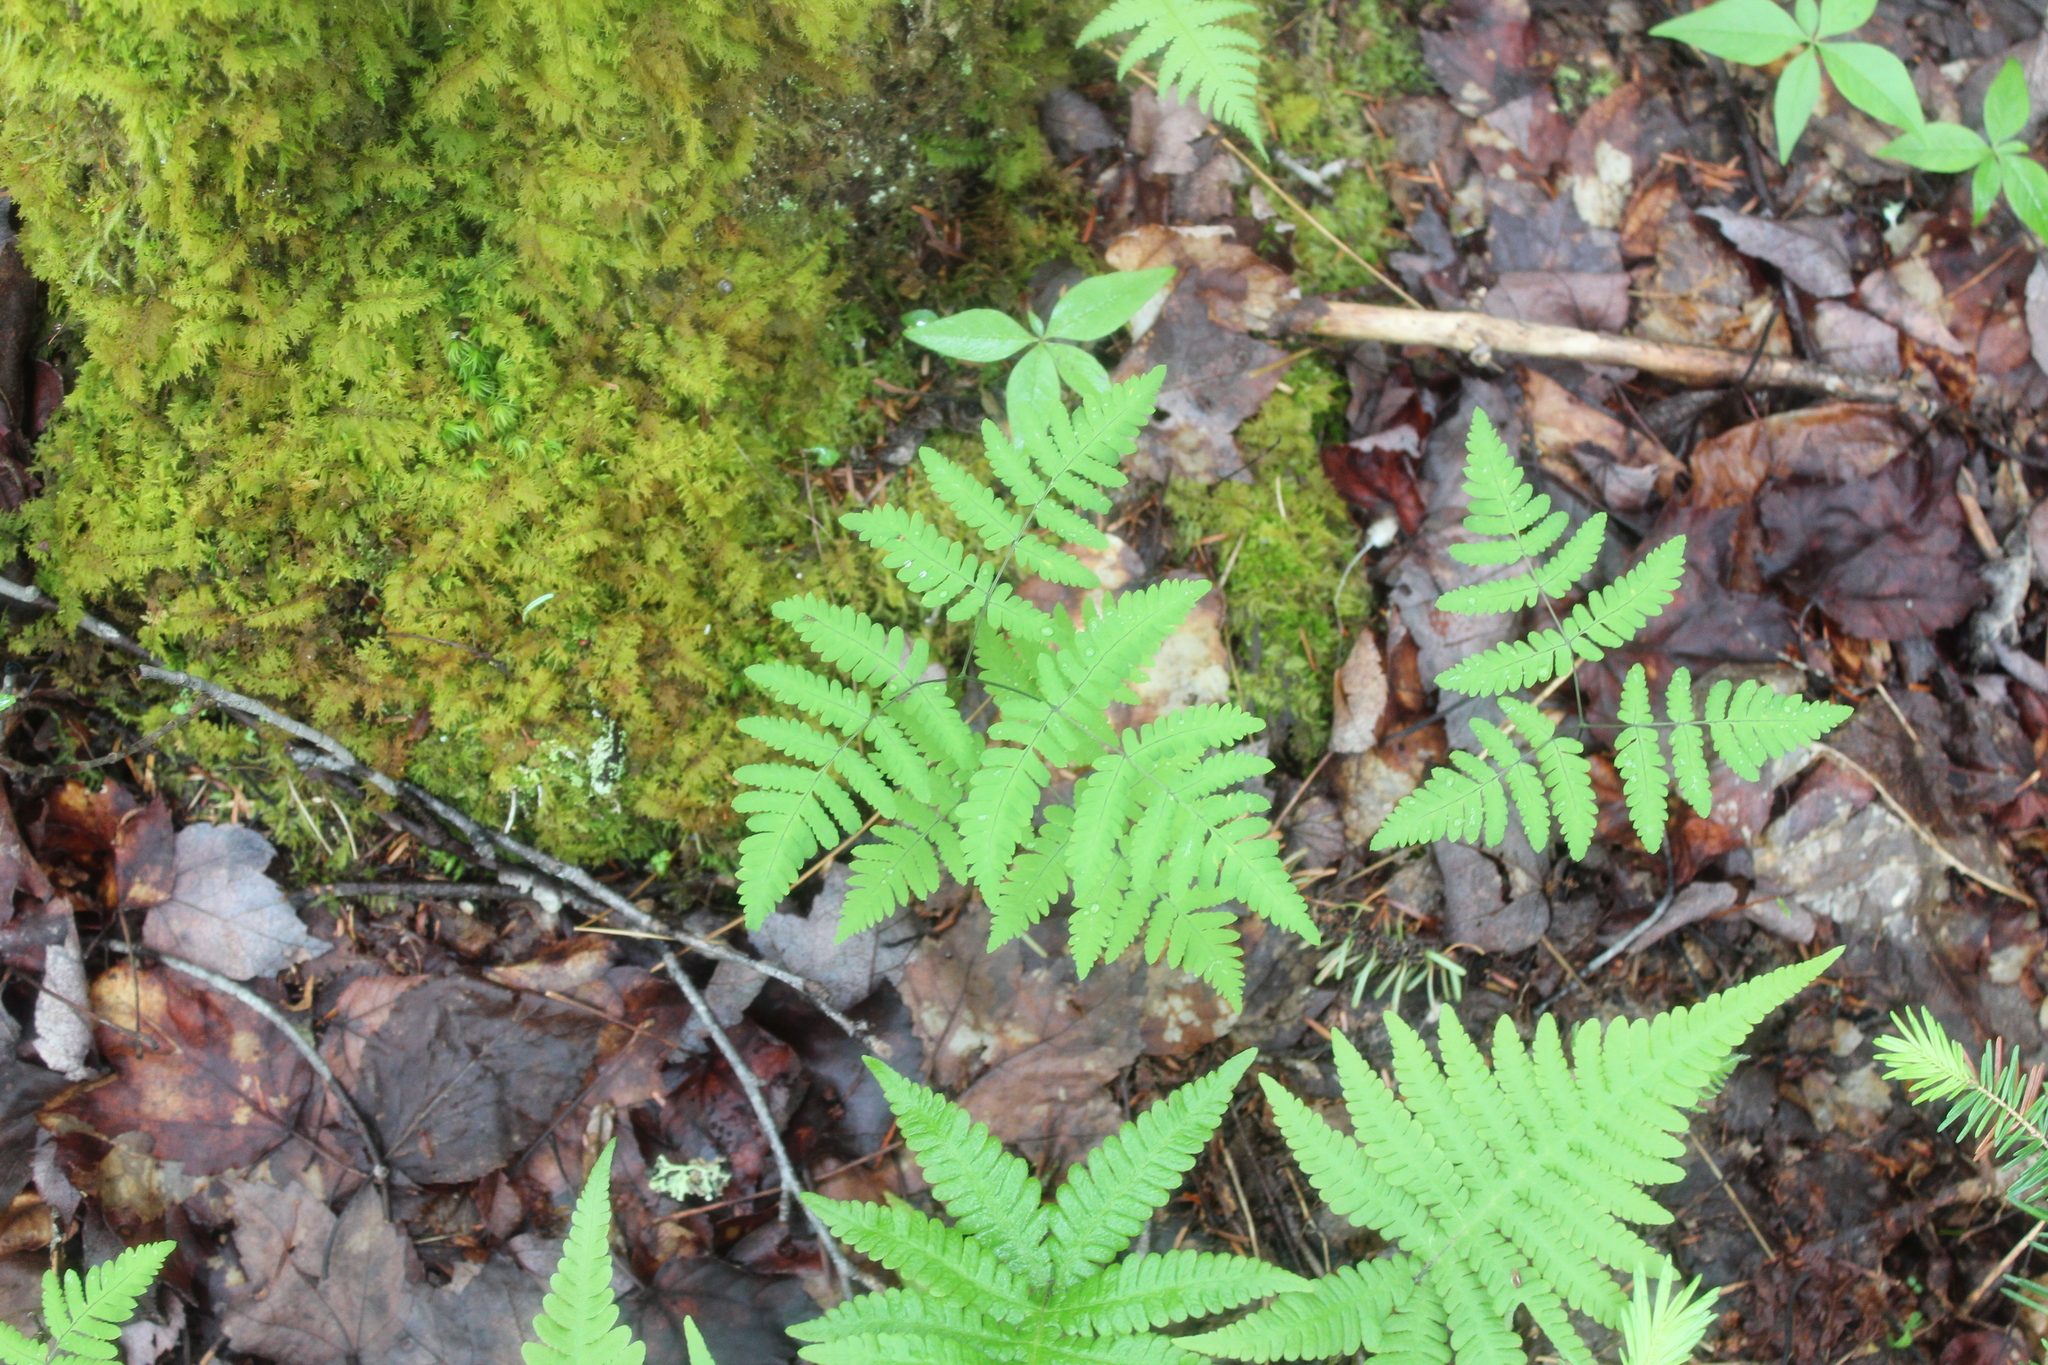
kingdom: Plantae
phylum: Tracheophyta
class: Polypodiopsida
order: Polypodiales
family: Cystopteridaceae
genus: Gymnocarpium
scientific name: Gymnocarpium dryopteris
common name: Oak fern
